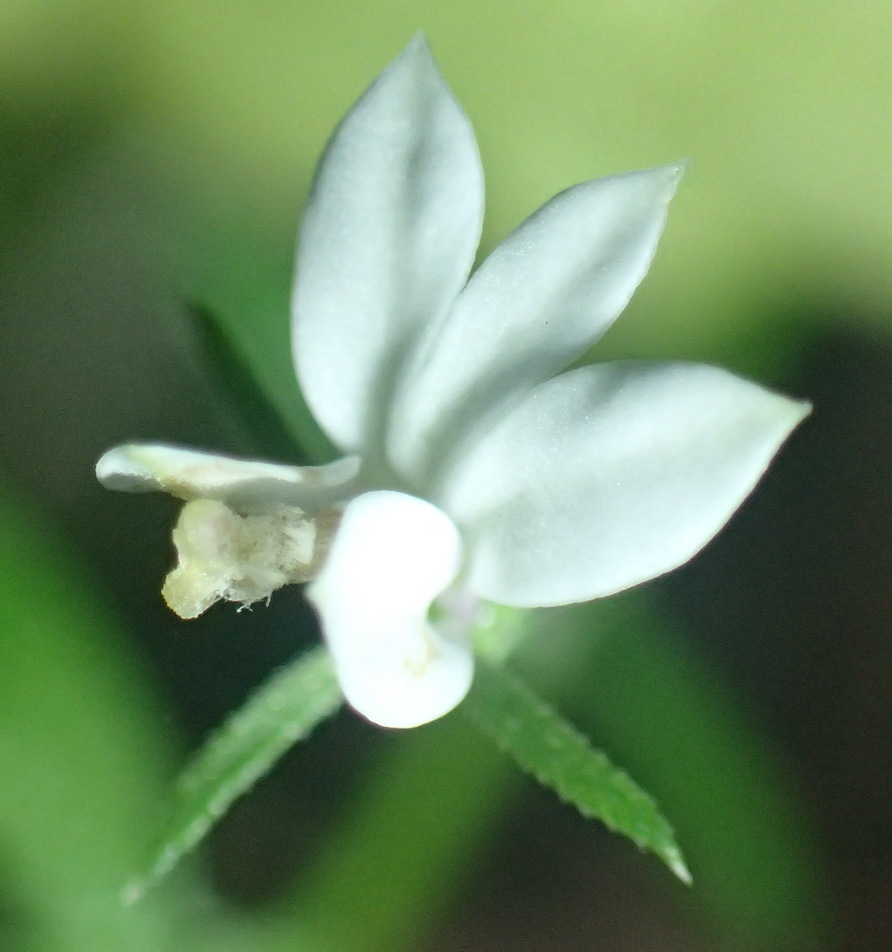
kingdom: Plantae
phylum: Tracheophyta
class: Magnoliopsida
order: Asterales
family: Campanulaceae
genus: Monopsis
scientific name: Monopsis alba
